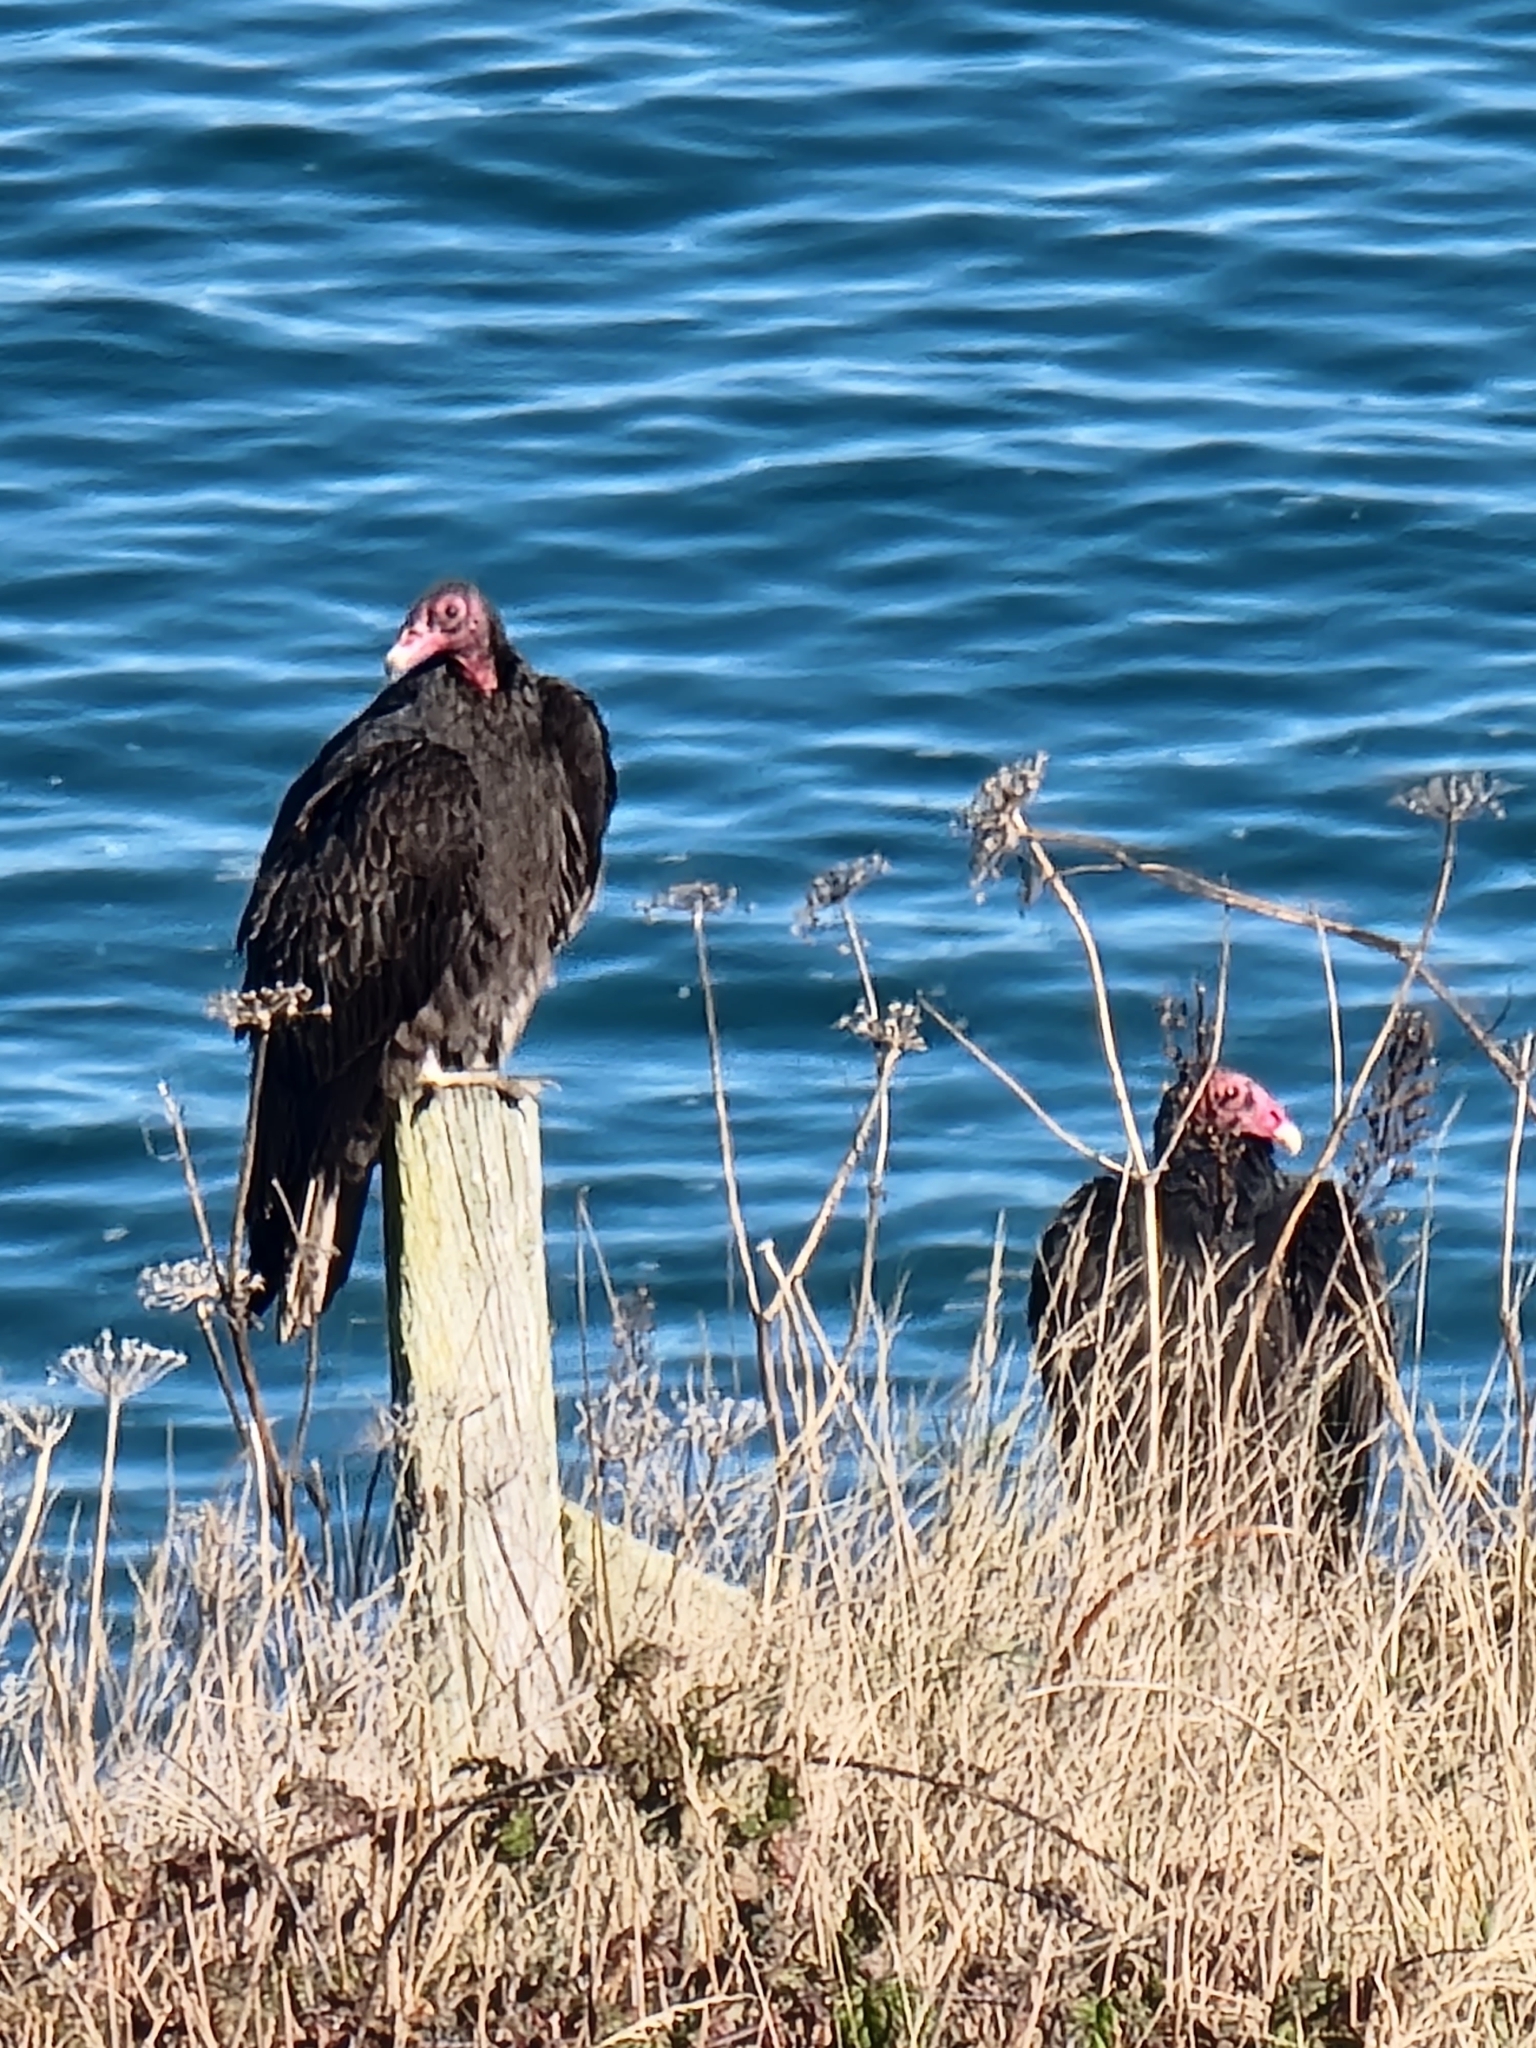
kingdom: Animalia
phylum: Chordata
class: Aves
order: Accipitriformes
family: Cathartidae
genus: Cathartes
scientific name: Cathartes aura
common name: Turkey vulture
